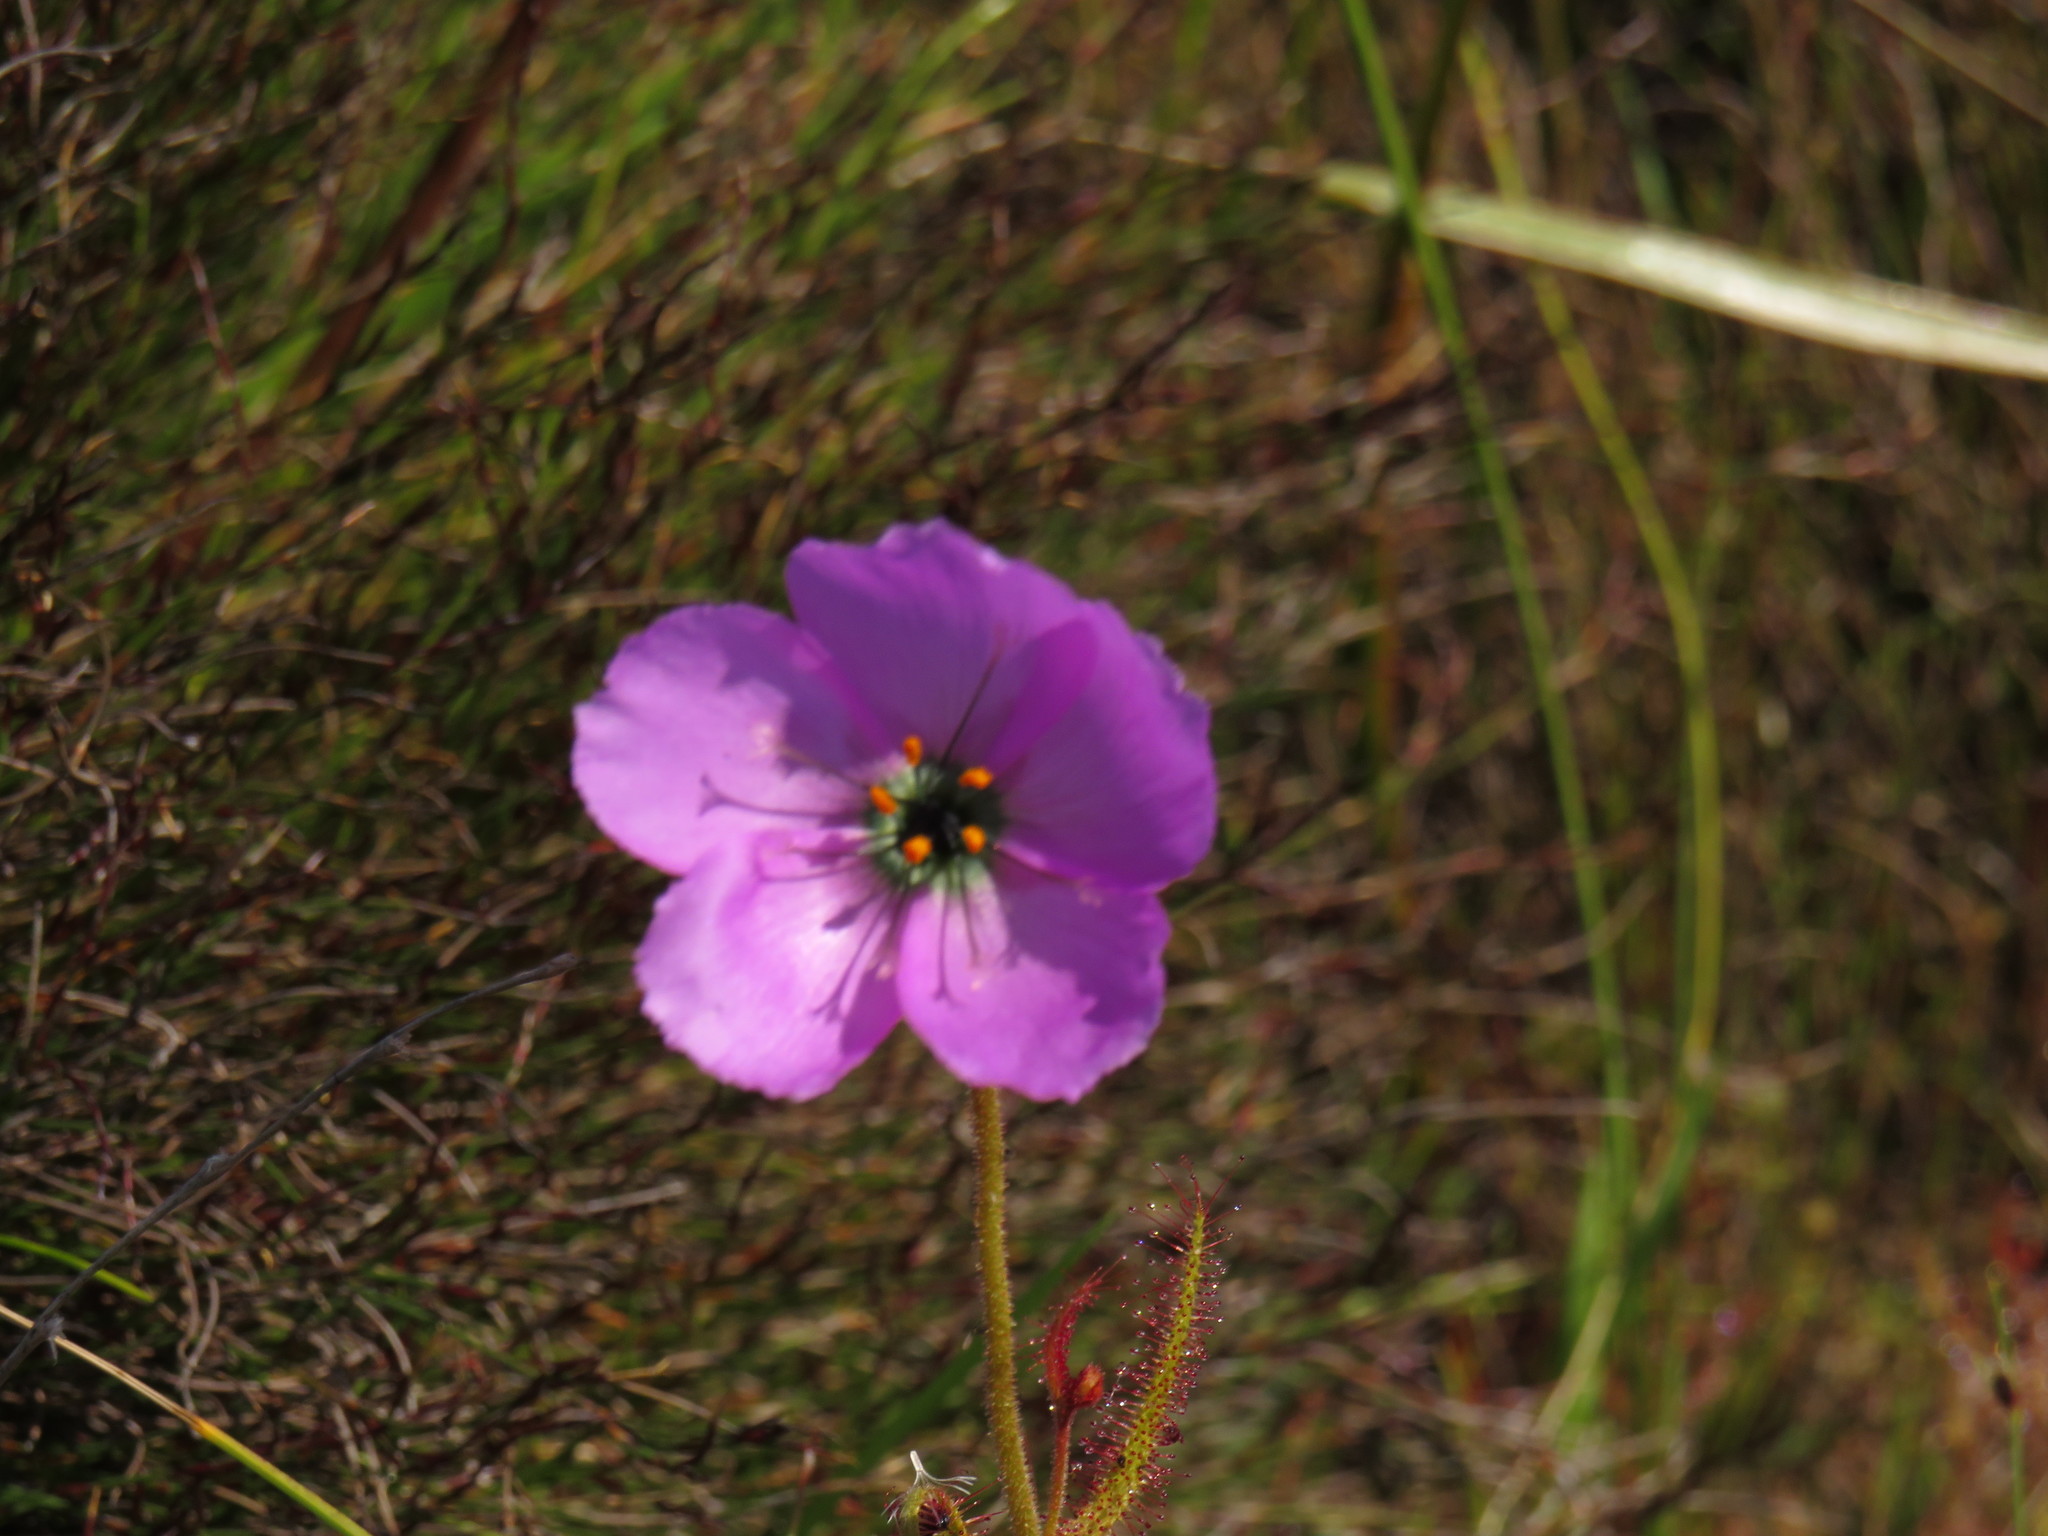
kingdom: Plantae
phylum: Tracheophyta
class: Magnoliopsida
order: Caryophyllales
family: Droseraceae
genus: Drosera
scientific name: Drosera cistiflora
